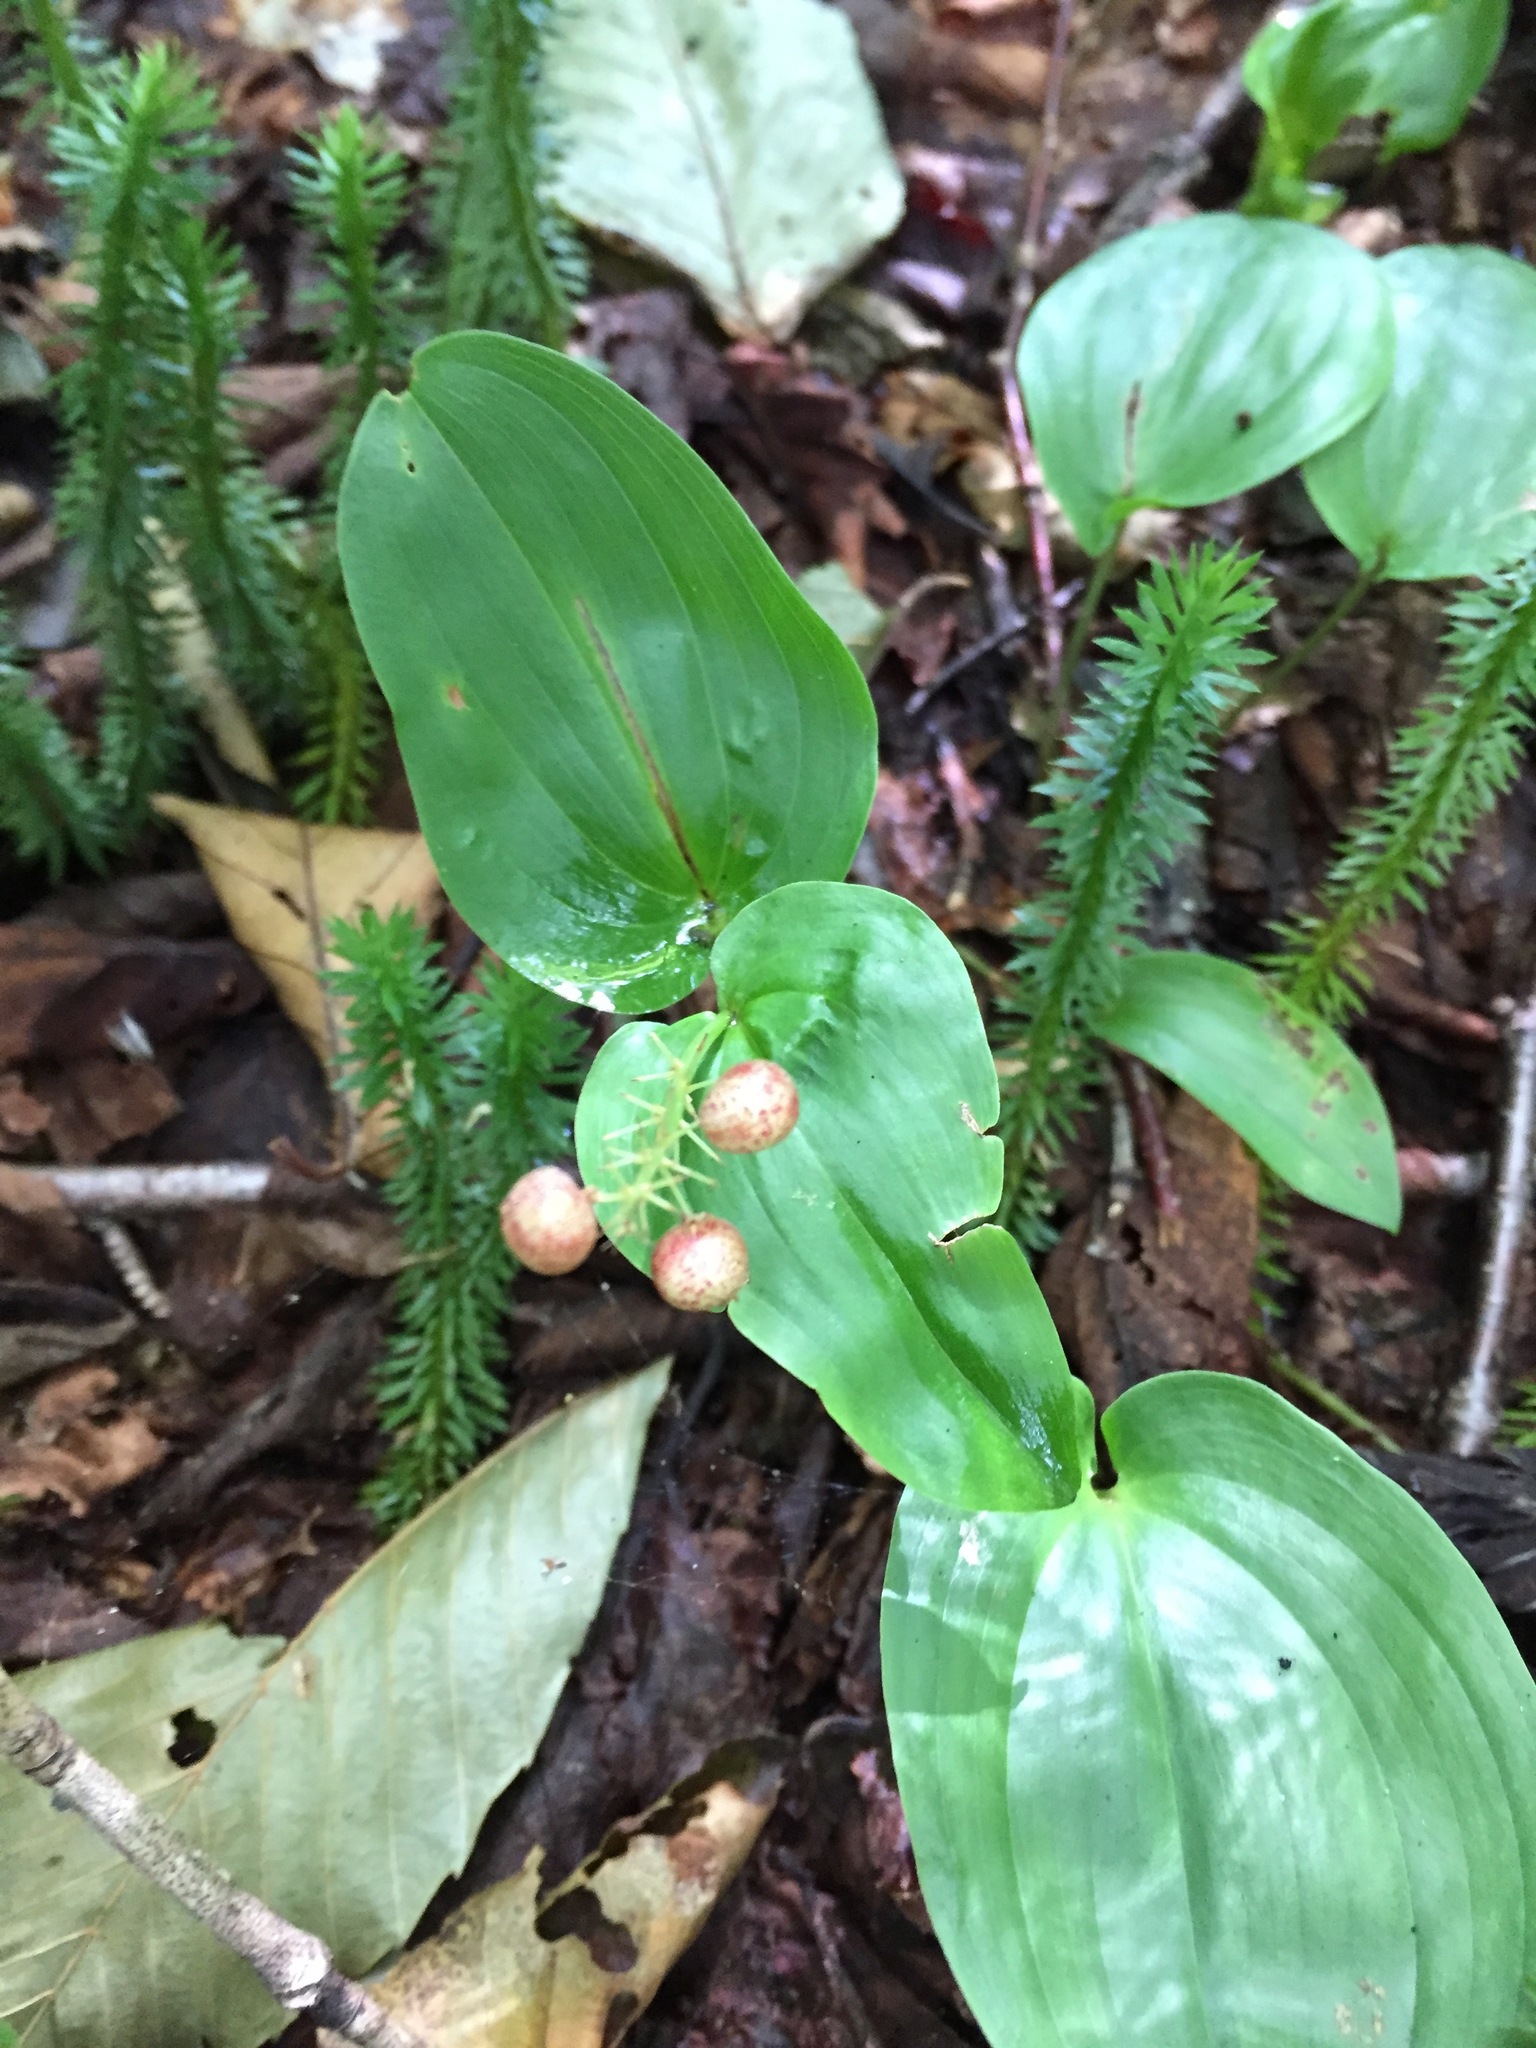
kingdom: Plantae
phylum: Tracheophyta
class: Liliopsida
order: Asparagales
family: Asparagaceae
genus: Maianthemum
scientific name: Maianthemum canadense
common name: False lily-of-the-valley
